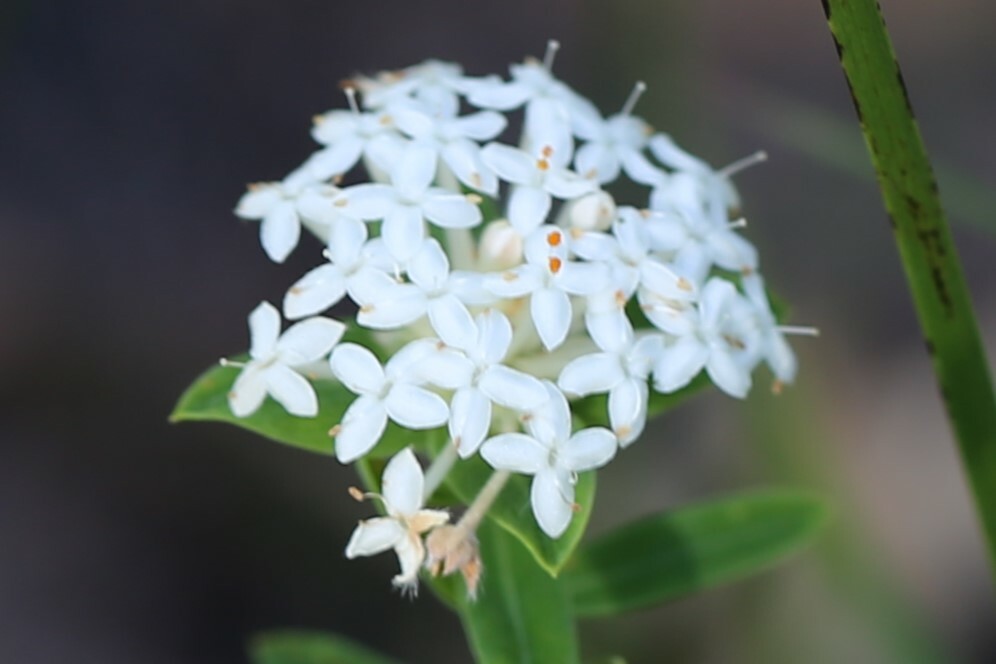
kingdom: Plantae
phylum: Tracheophyta
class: Magnoliopsida
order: Malvales
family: Thymelaeaceae
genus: Pimelea
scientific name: Pimelea linifolia
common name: Queen-of-the-bush
